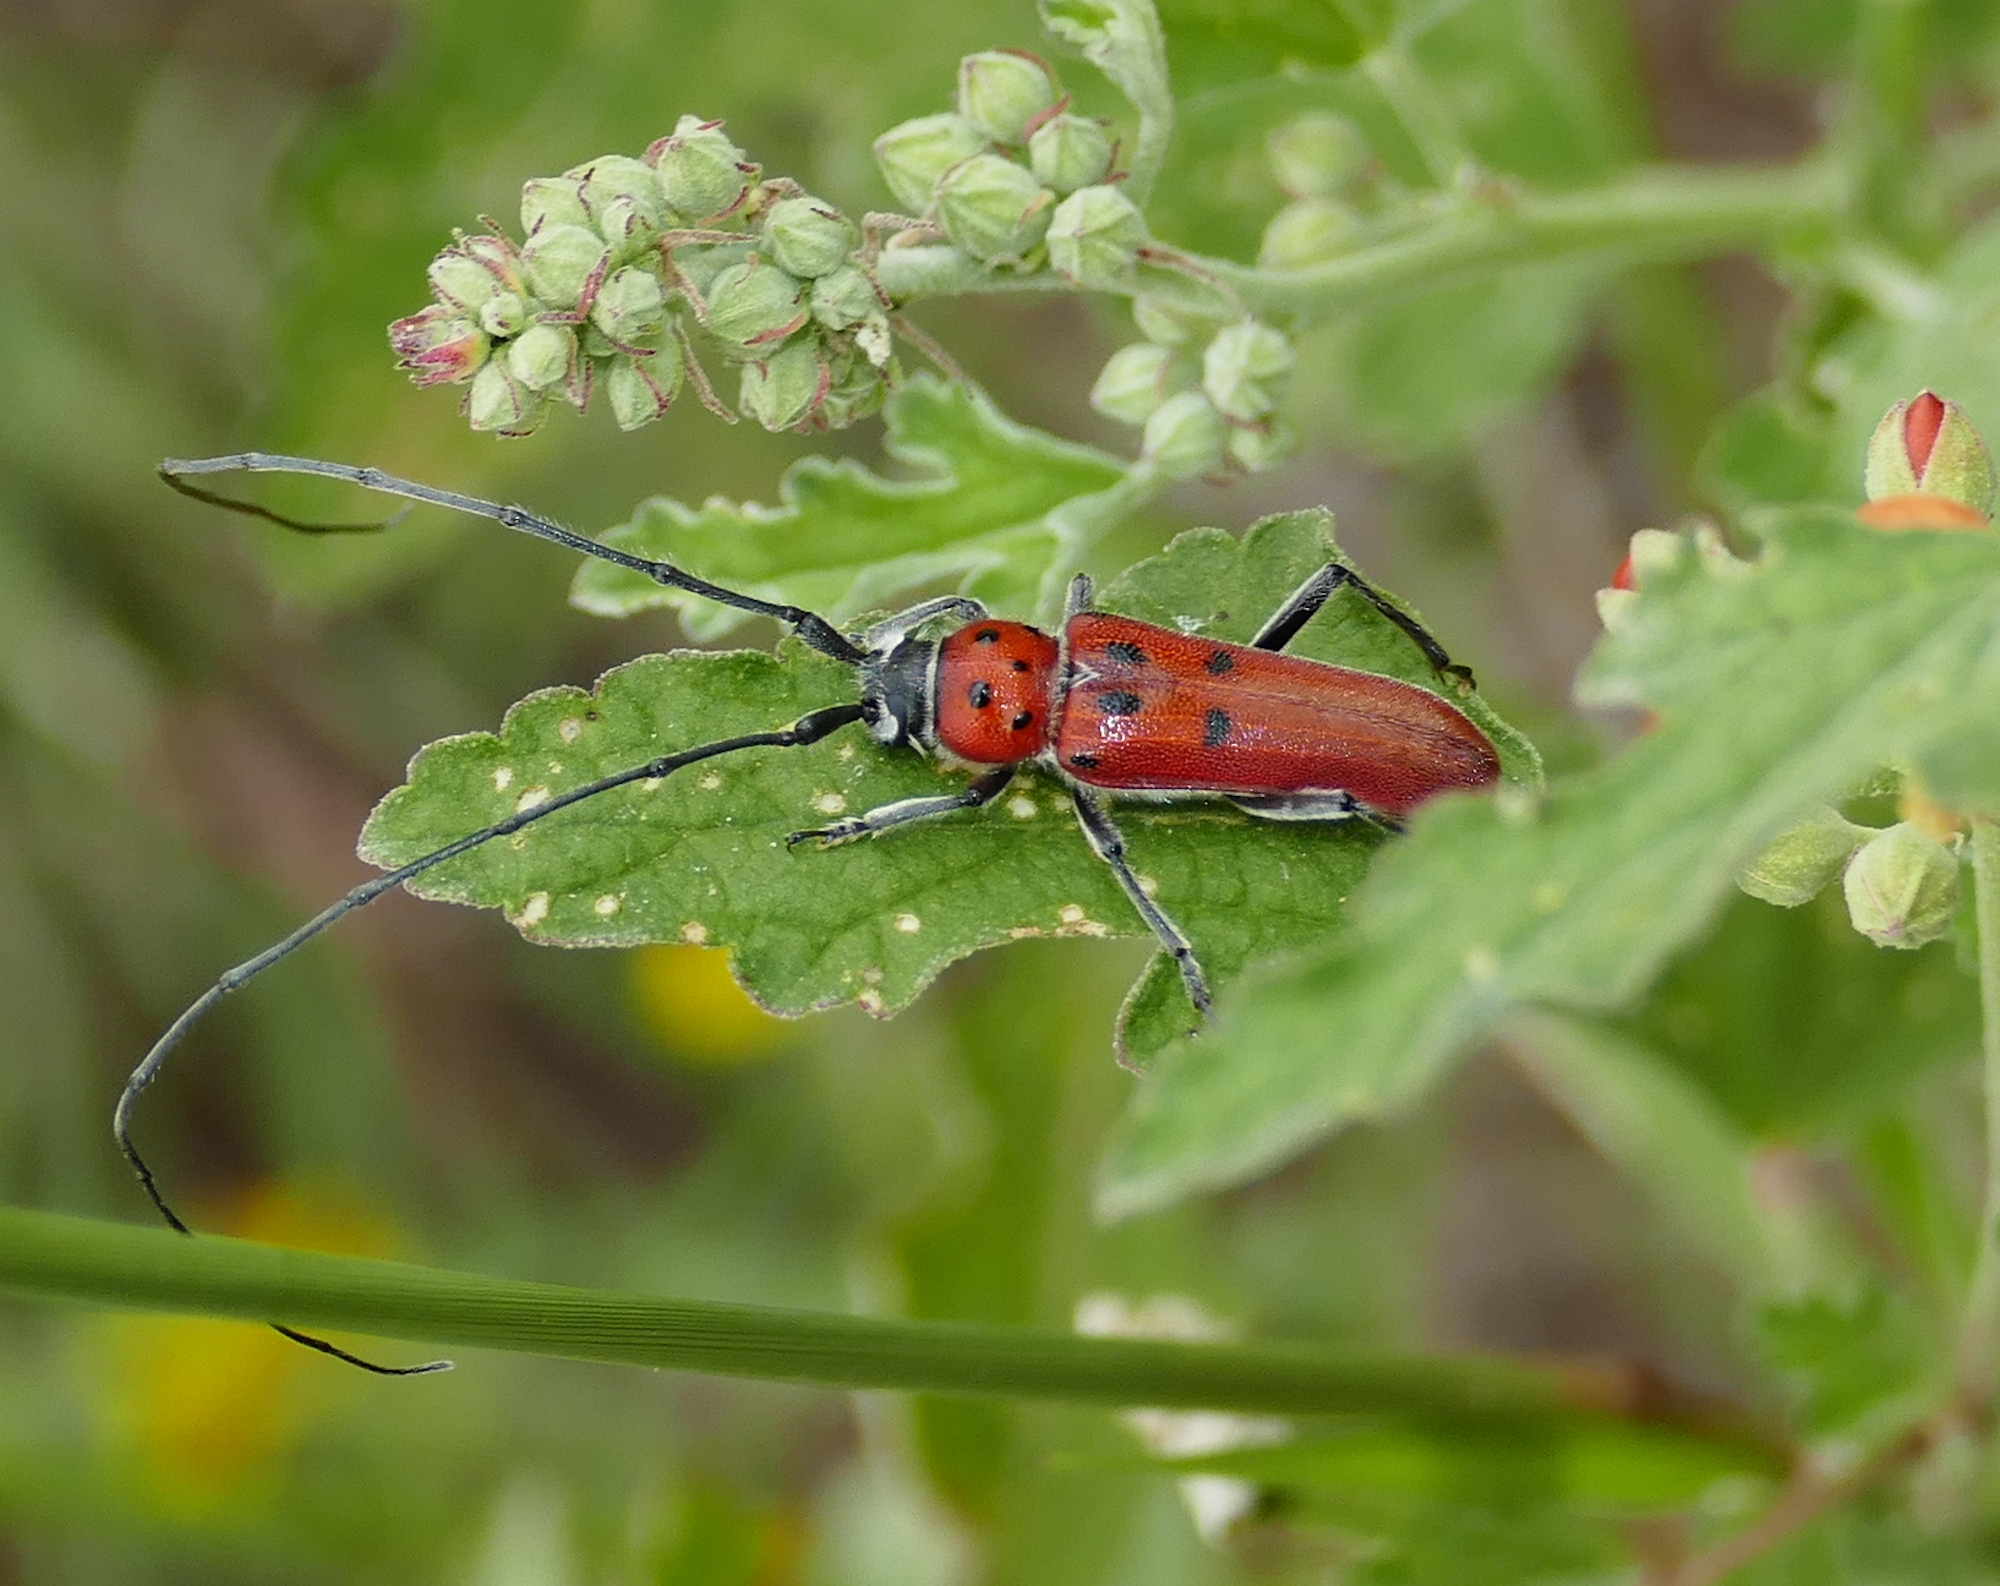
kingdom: Animalia
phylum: Arthropoda
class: Insecta
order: Coleoptera
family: Cerambycidae
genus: Tylosis
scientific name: Tylosis maculatus
